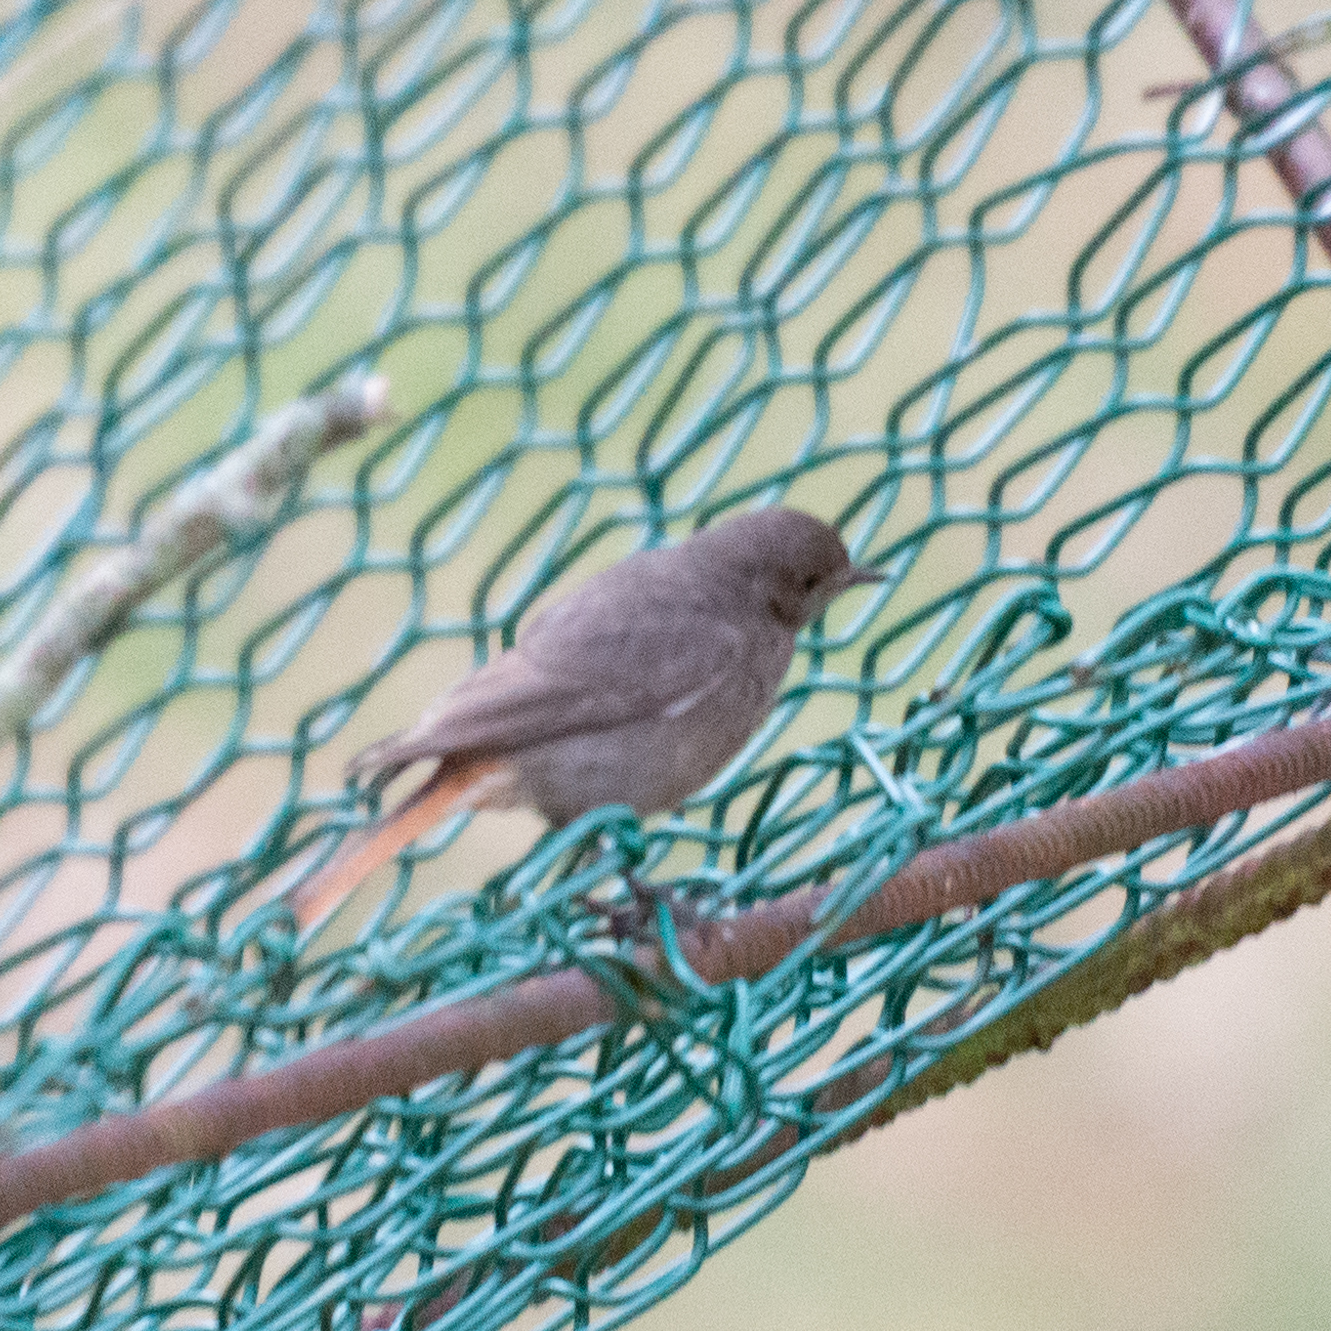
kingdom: Animalia
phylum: Chordata
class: Aves
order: Passeriformes
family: Muscicapidae
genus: Phoenicurus
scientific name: Phoenicurus ochruros
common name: Black redstart
